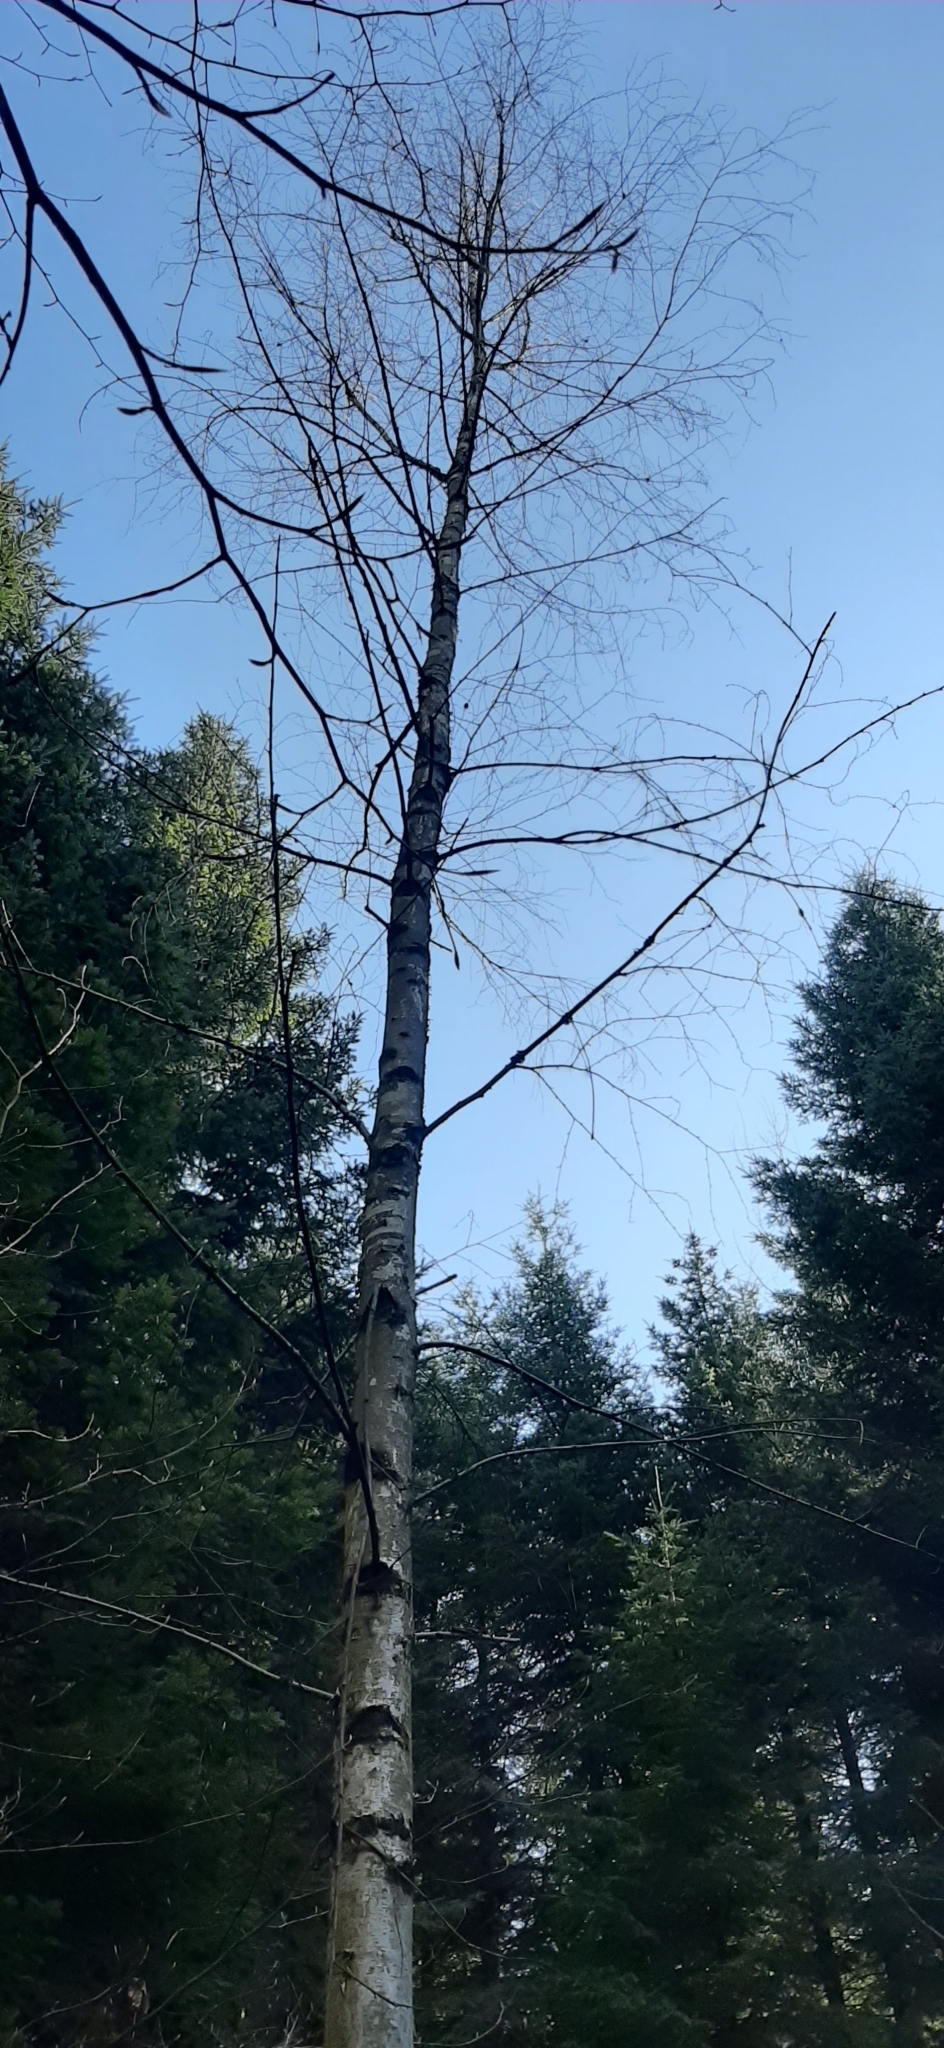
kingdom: Plantae
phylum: Tracheophyta
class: Magnoliopsida
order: Fagales
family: Betulaceae
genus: Betula
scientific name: Betula pendula
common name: Silver birch
